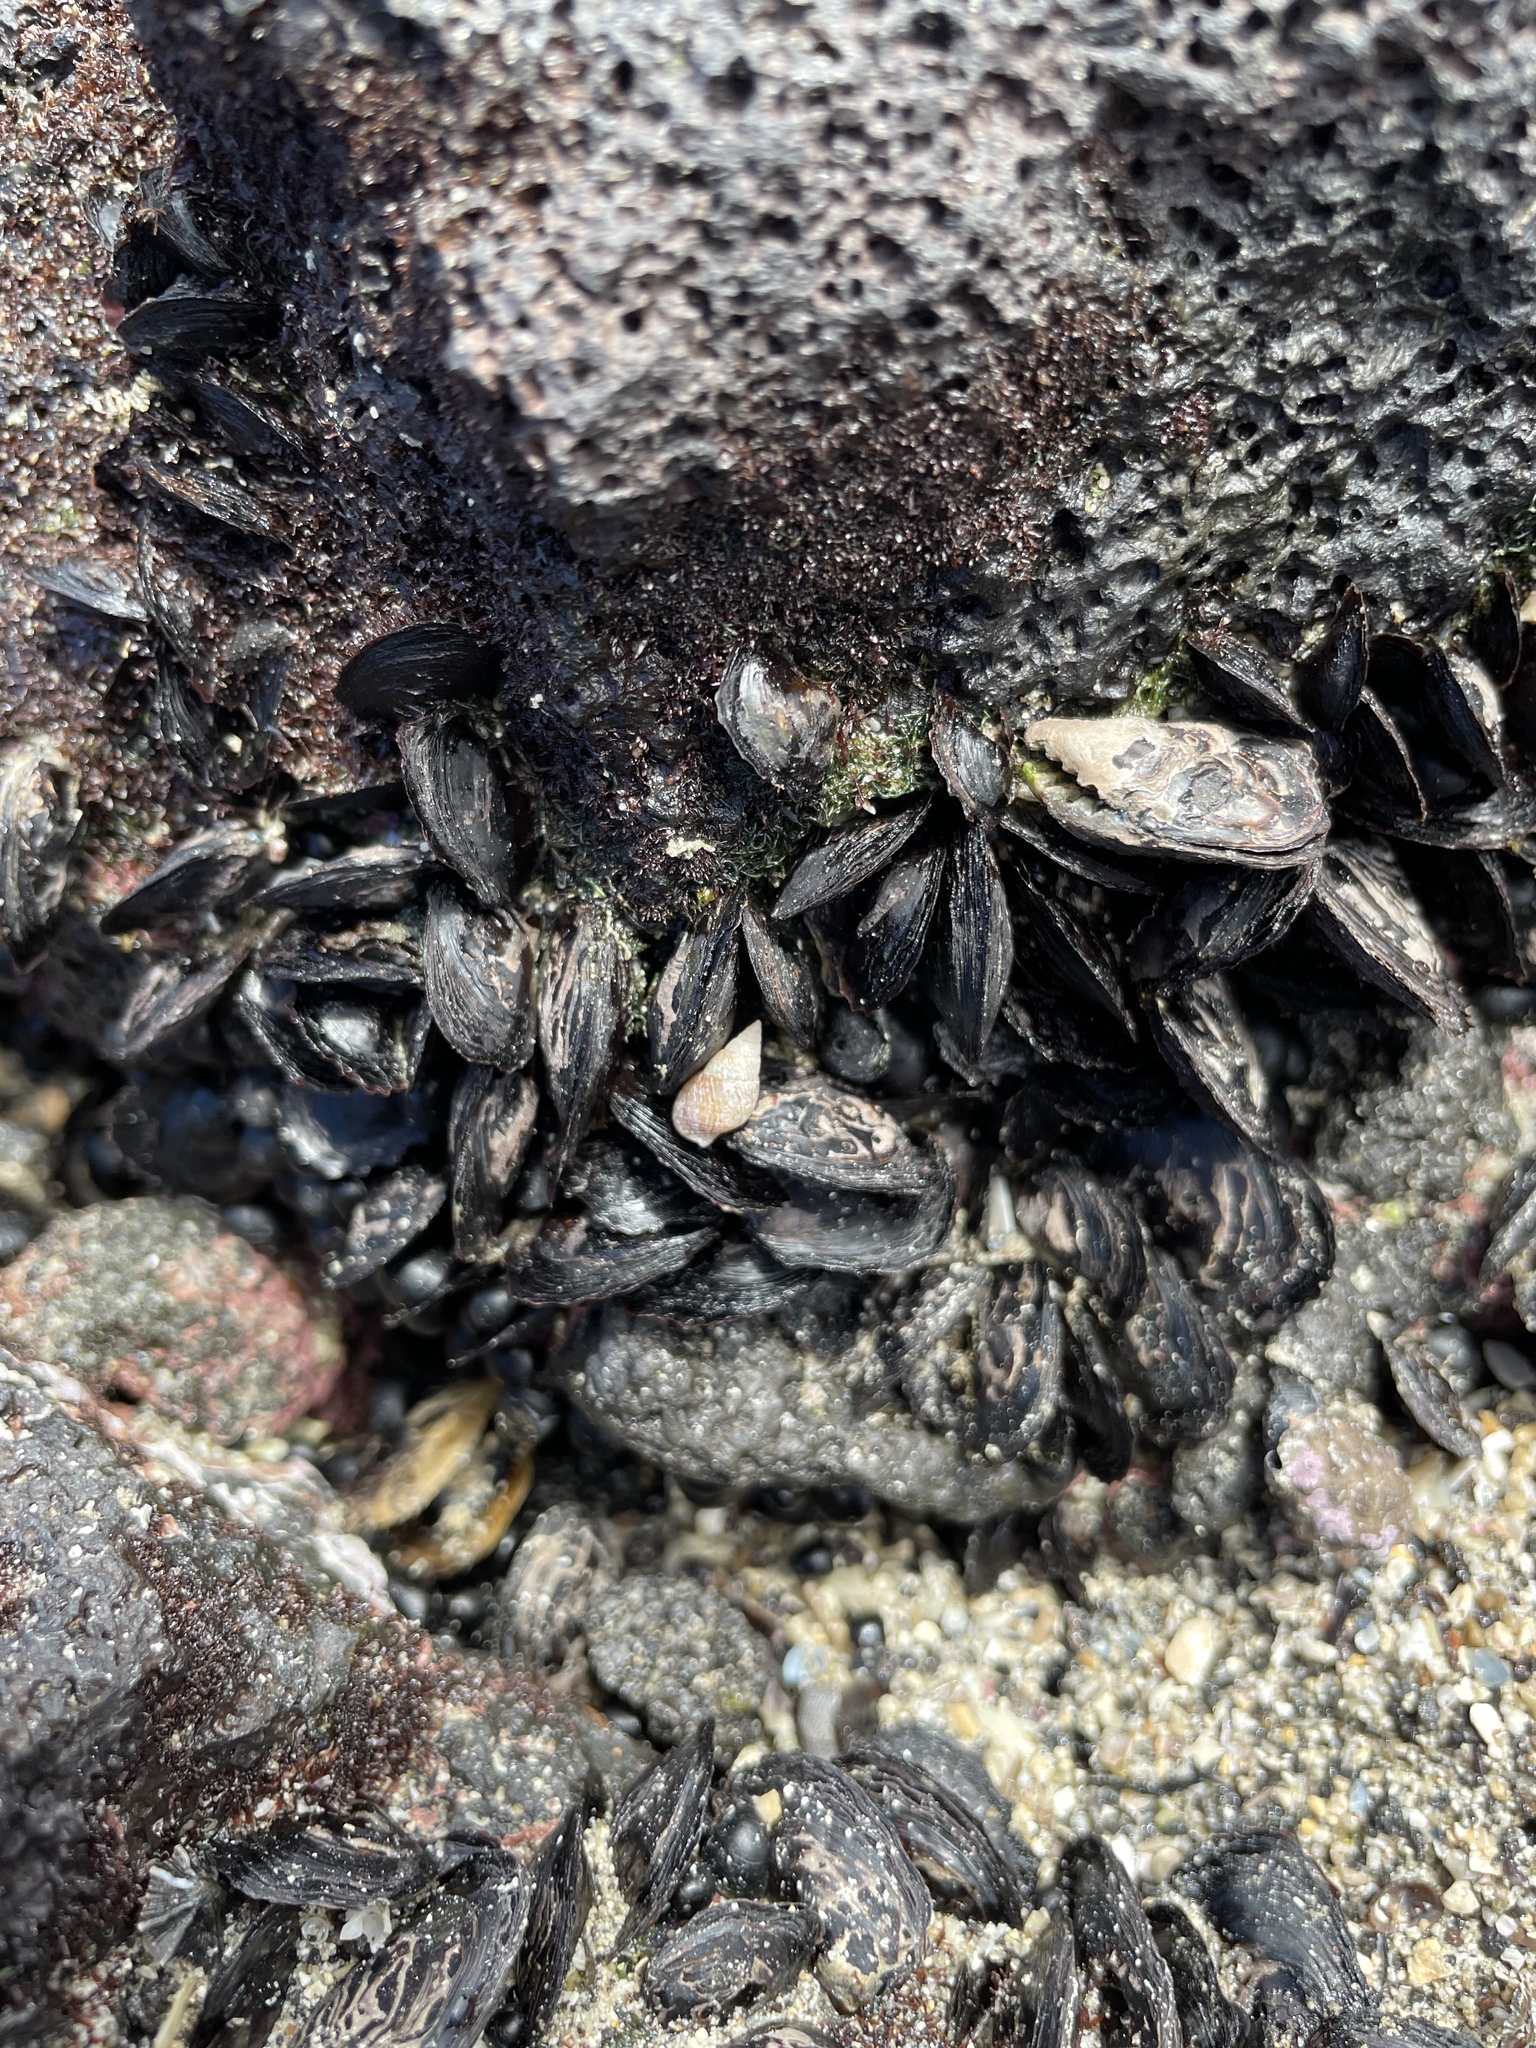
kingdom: Animalia
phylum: Mollusca
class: Bivalvia
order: Ostreida
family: Isognomonidae
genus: Isognomon
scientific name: Isognomon californicus
